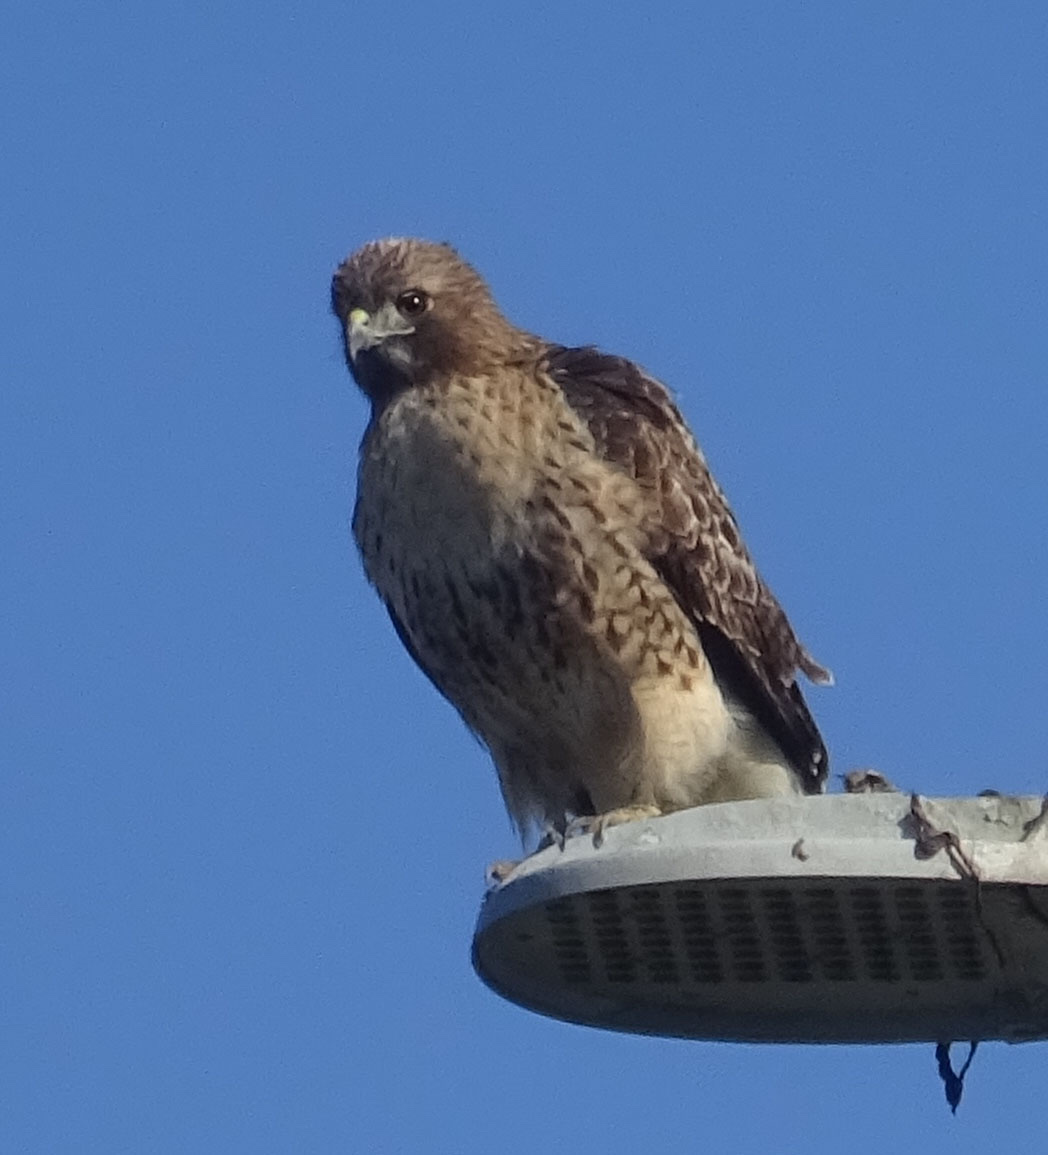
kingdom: Animalia
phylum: Chordata
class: Aves
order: Accipitriformes
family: Accipitridae
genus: Buteo
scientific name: Buteo jamaicensis
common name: Red-tailed hawk
